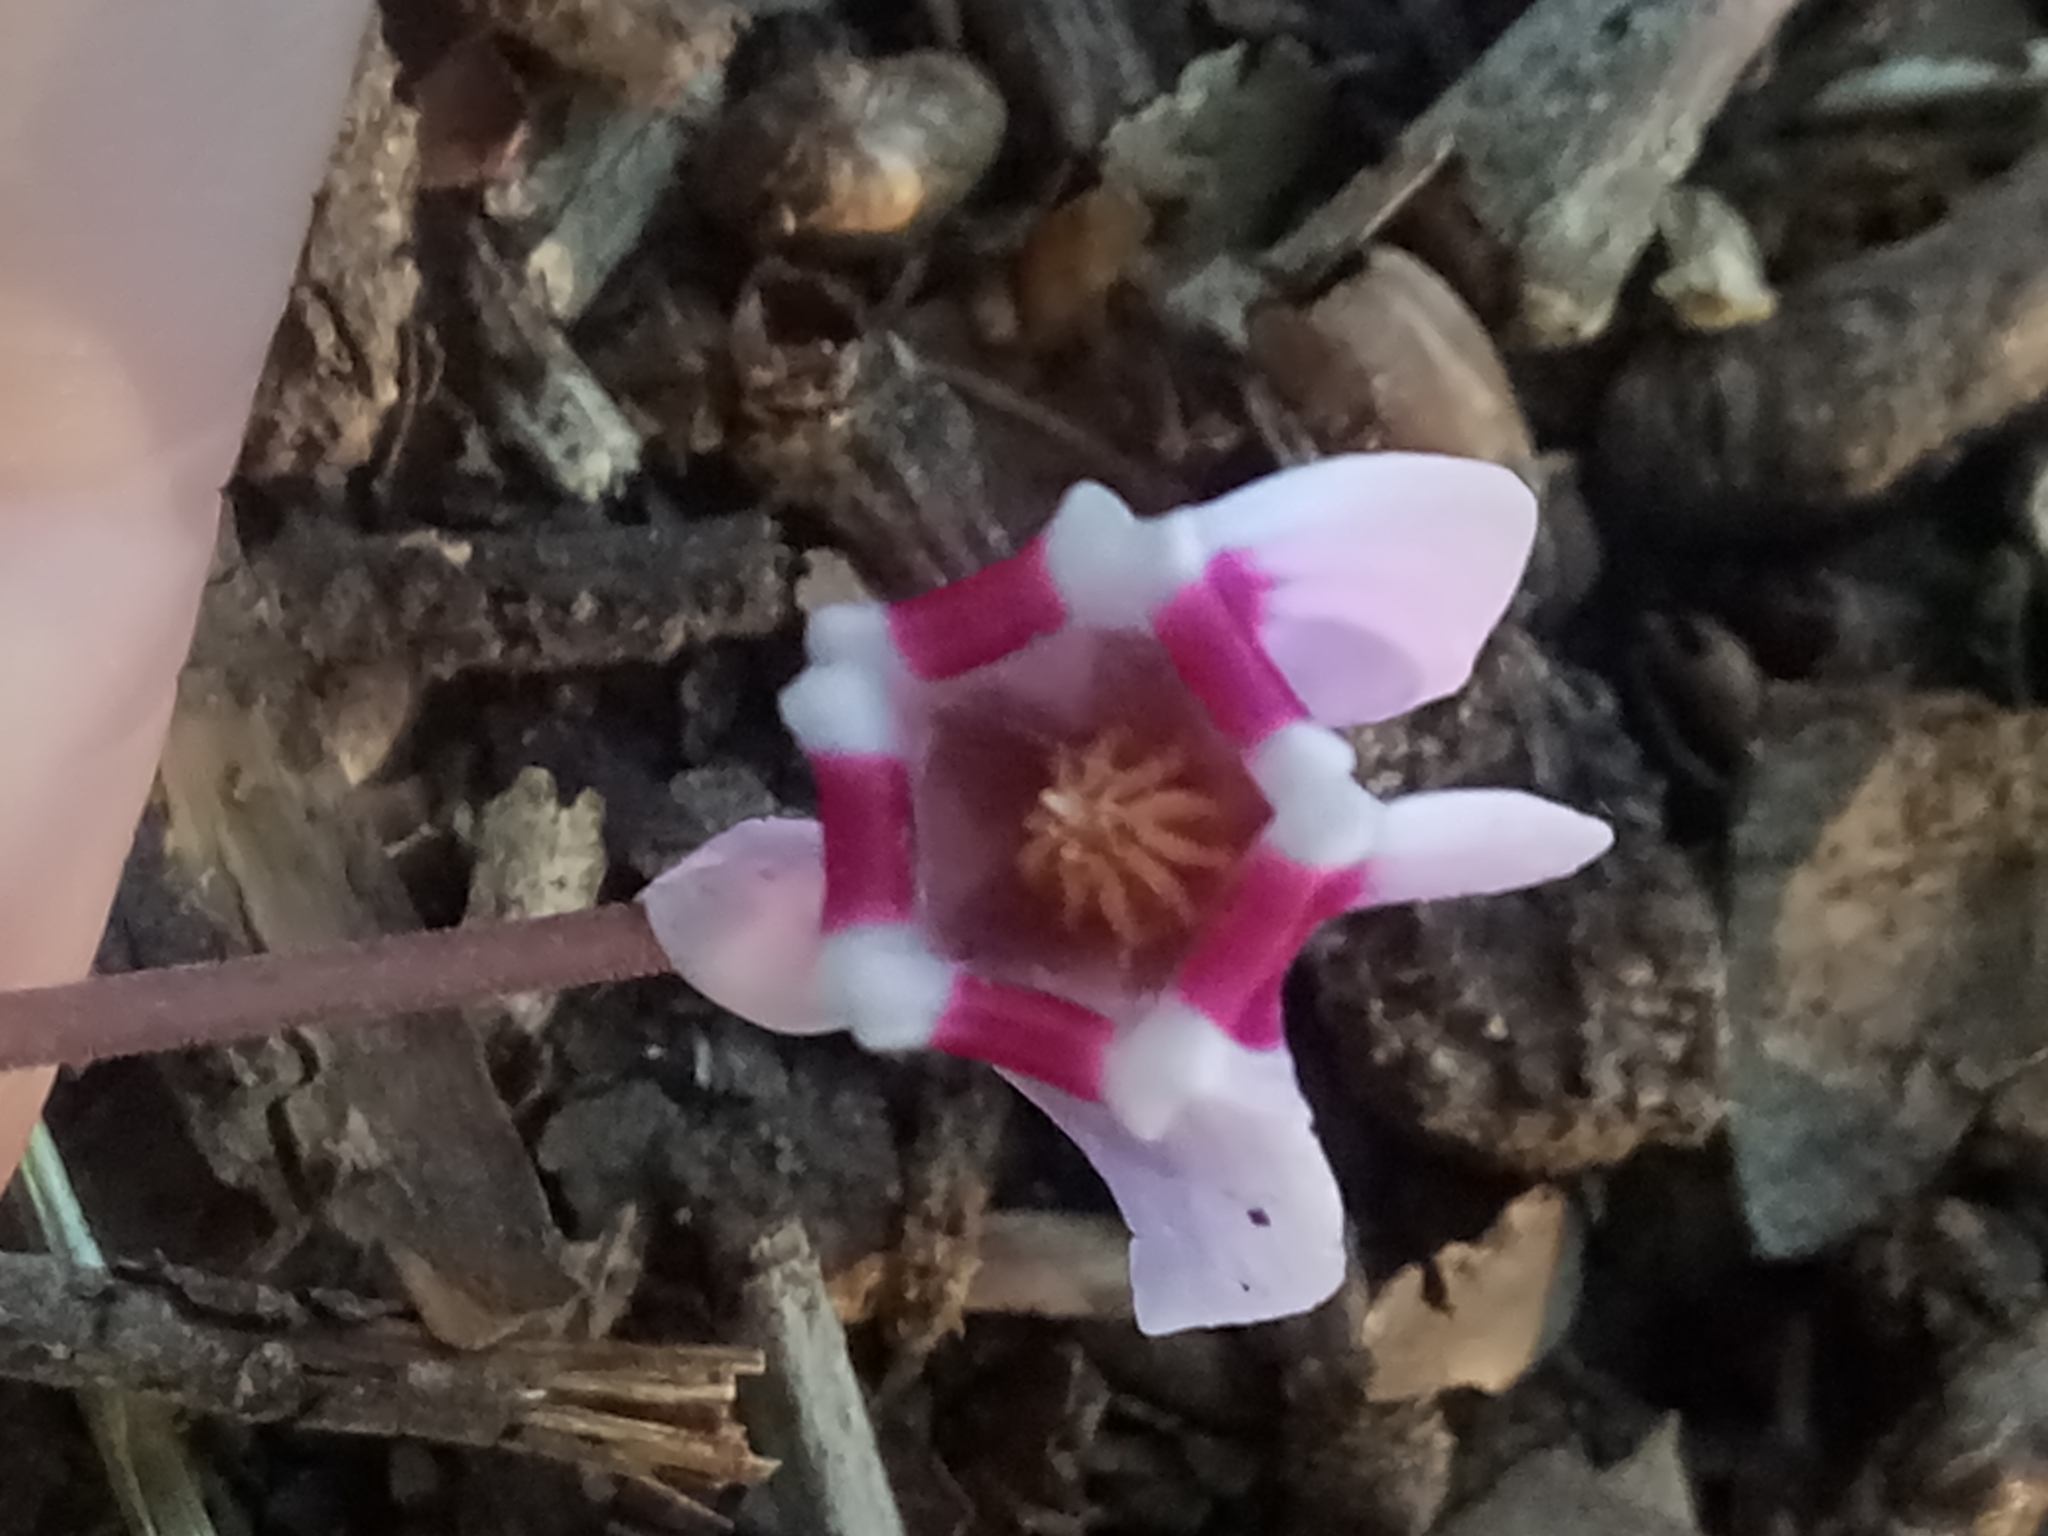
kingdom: Plantae
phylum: Tracheophyta
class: Magnoliopsida
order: Ericales
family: Primulaceae
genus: Cyclamen
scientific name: Cyclamen africanum
